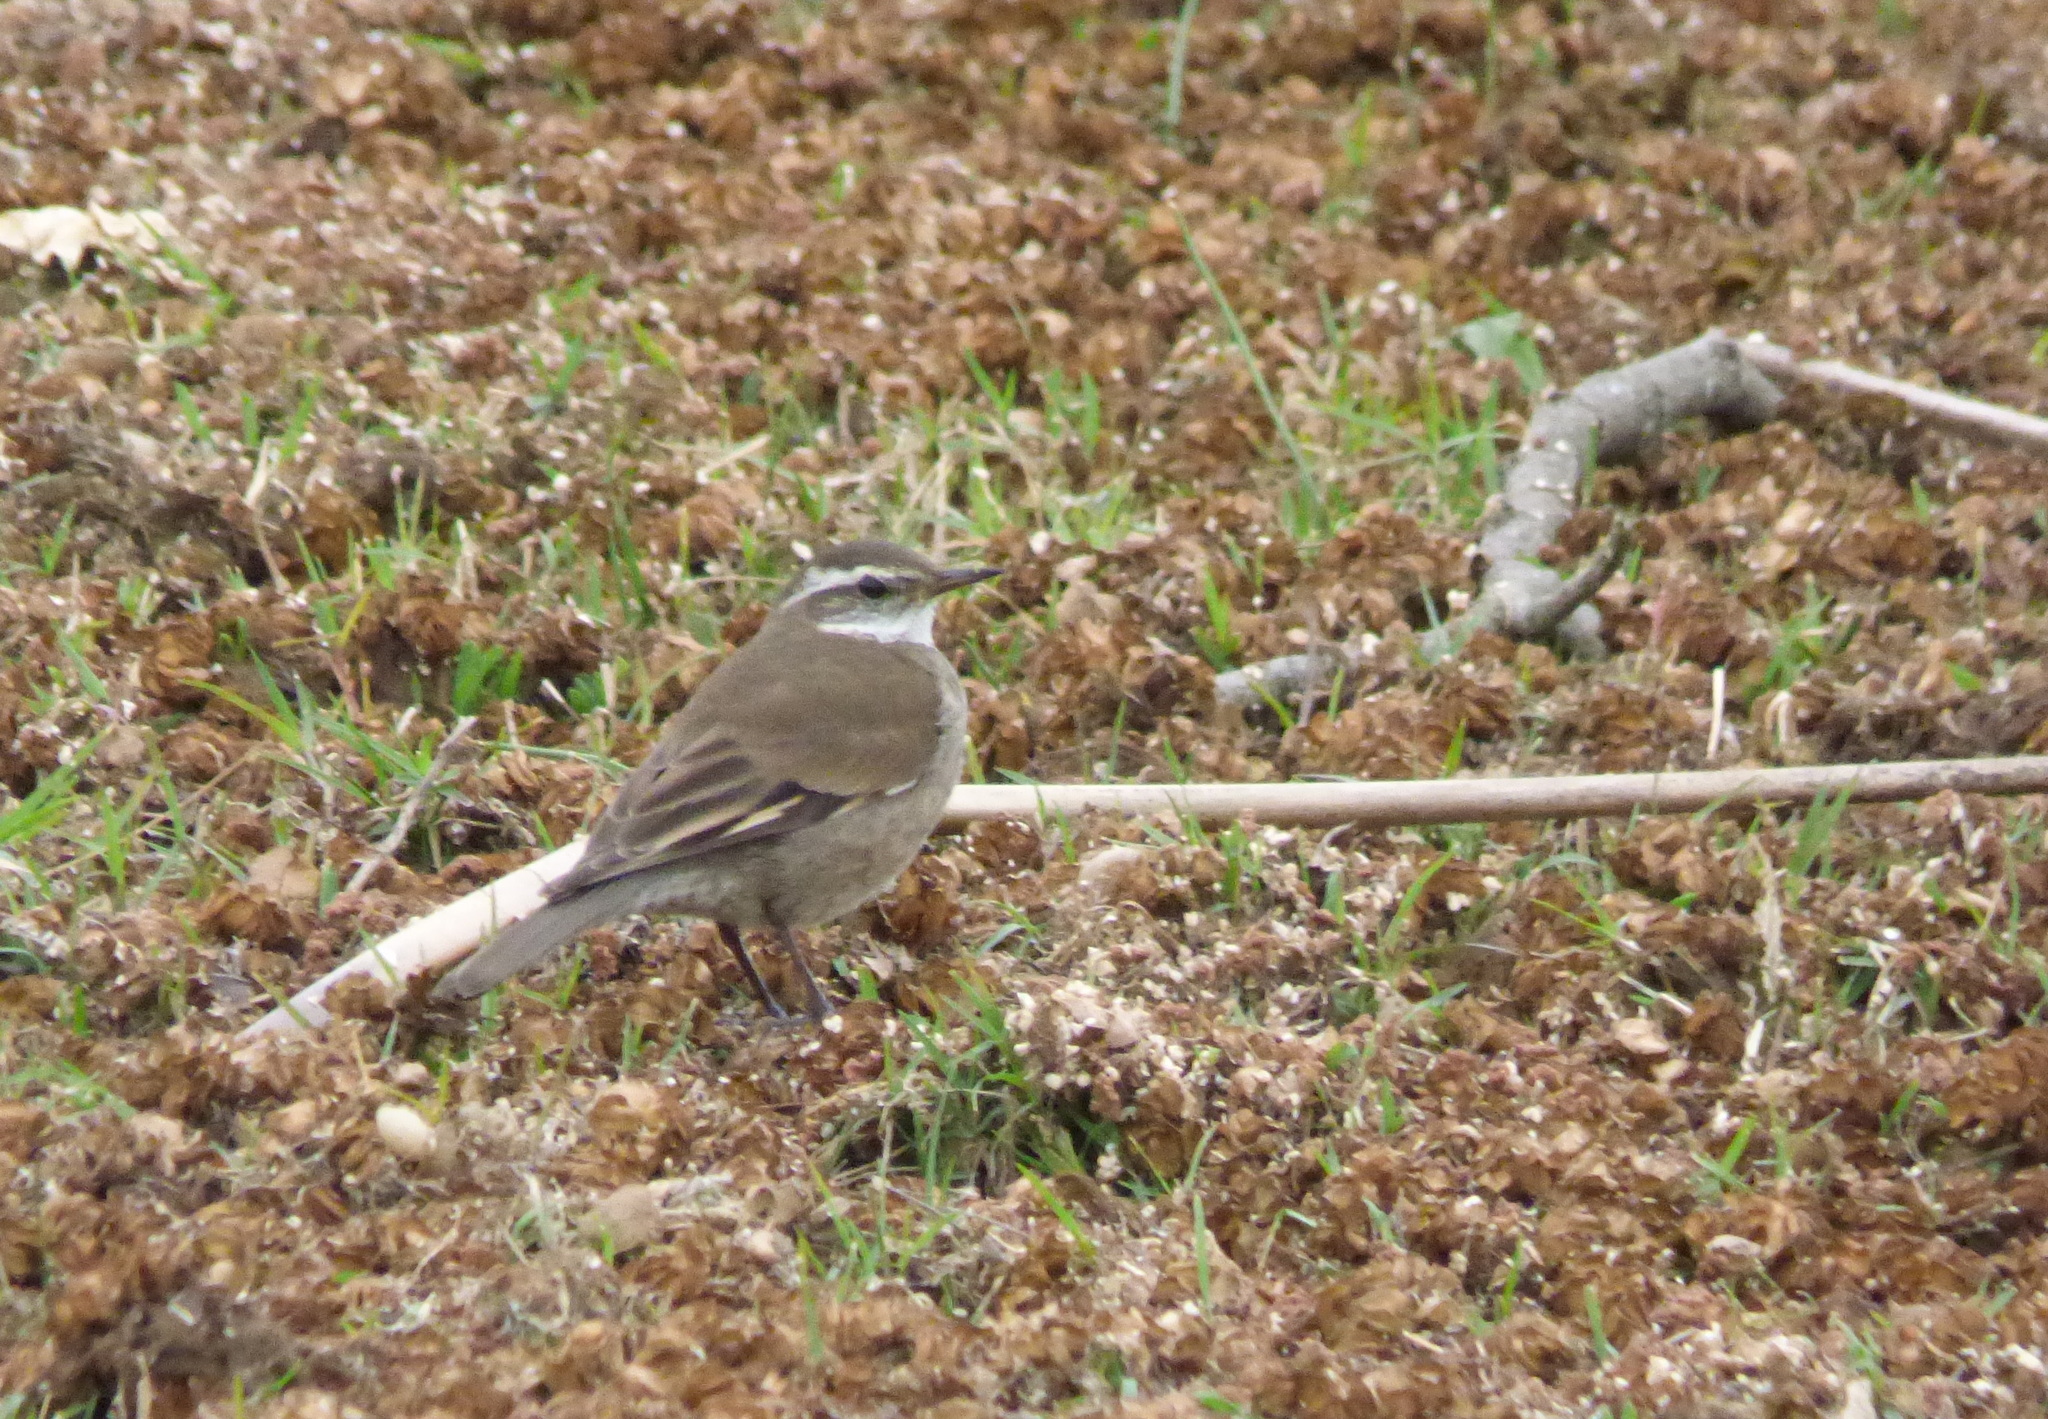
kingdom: Animalia
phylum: Chordata
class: Aves
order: Passeriformes
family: Furnariidae
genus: Cinclodes
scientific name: Cinclodes fuscus
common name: Buff-winged cinclodes
